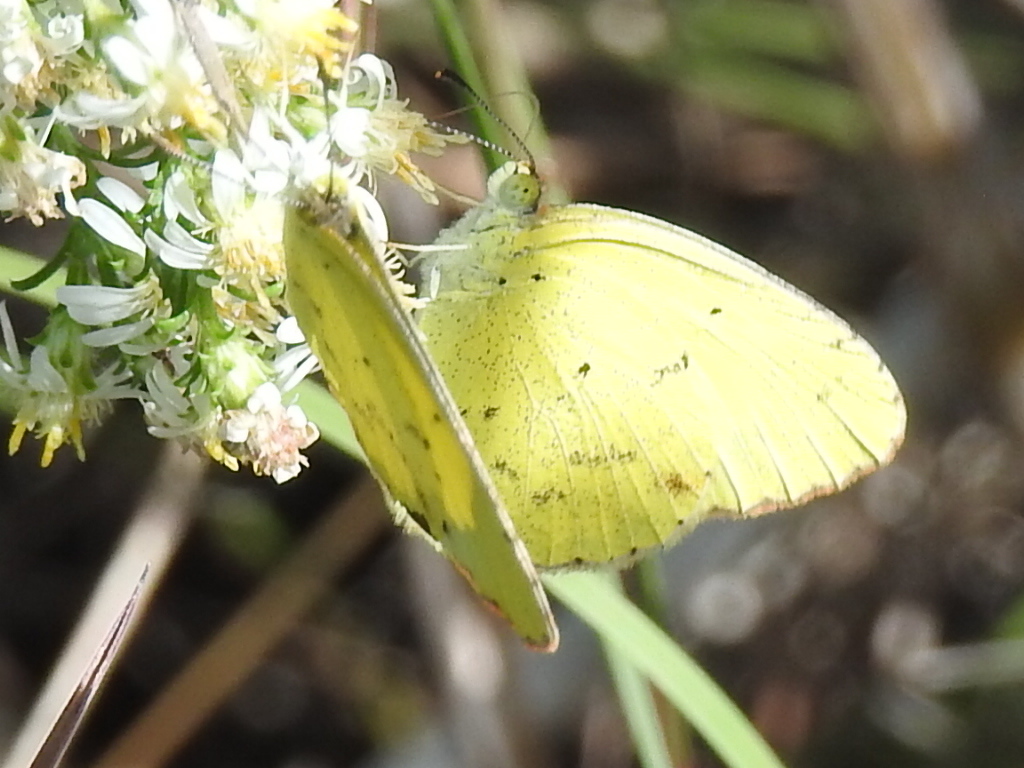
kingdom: Animalia
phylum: Arthropoda
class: Insecta
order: Lepidoptera
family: Pieridae
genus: Pyrisitia
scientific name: Pyrisitia lisa
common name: Little yellow
